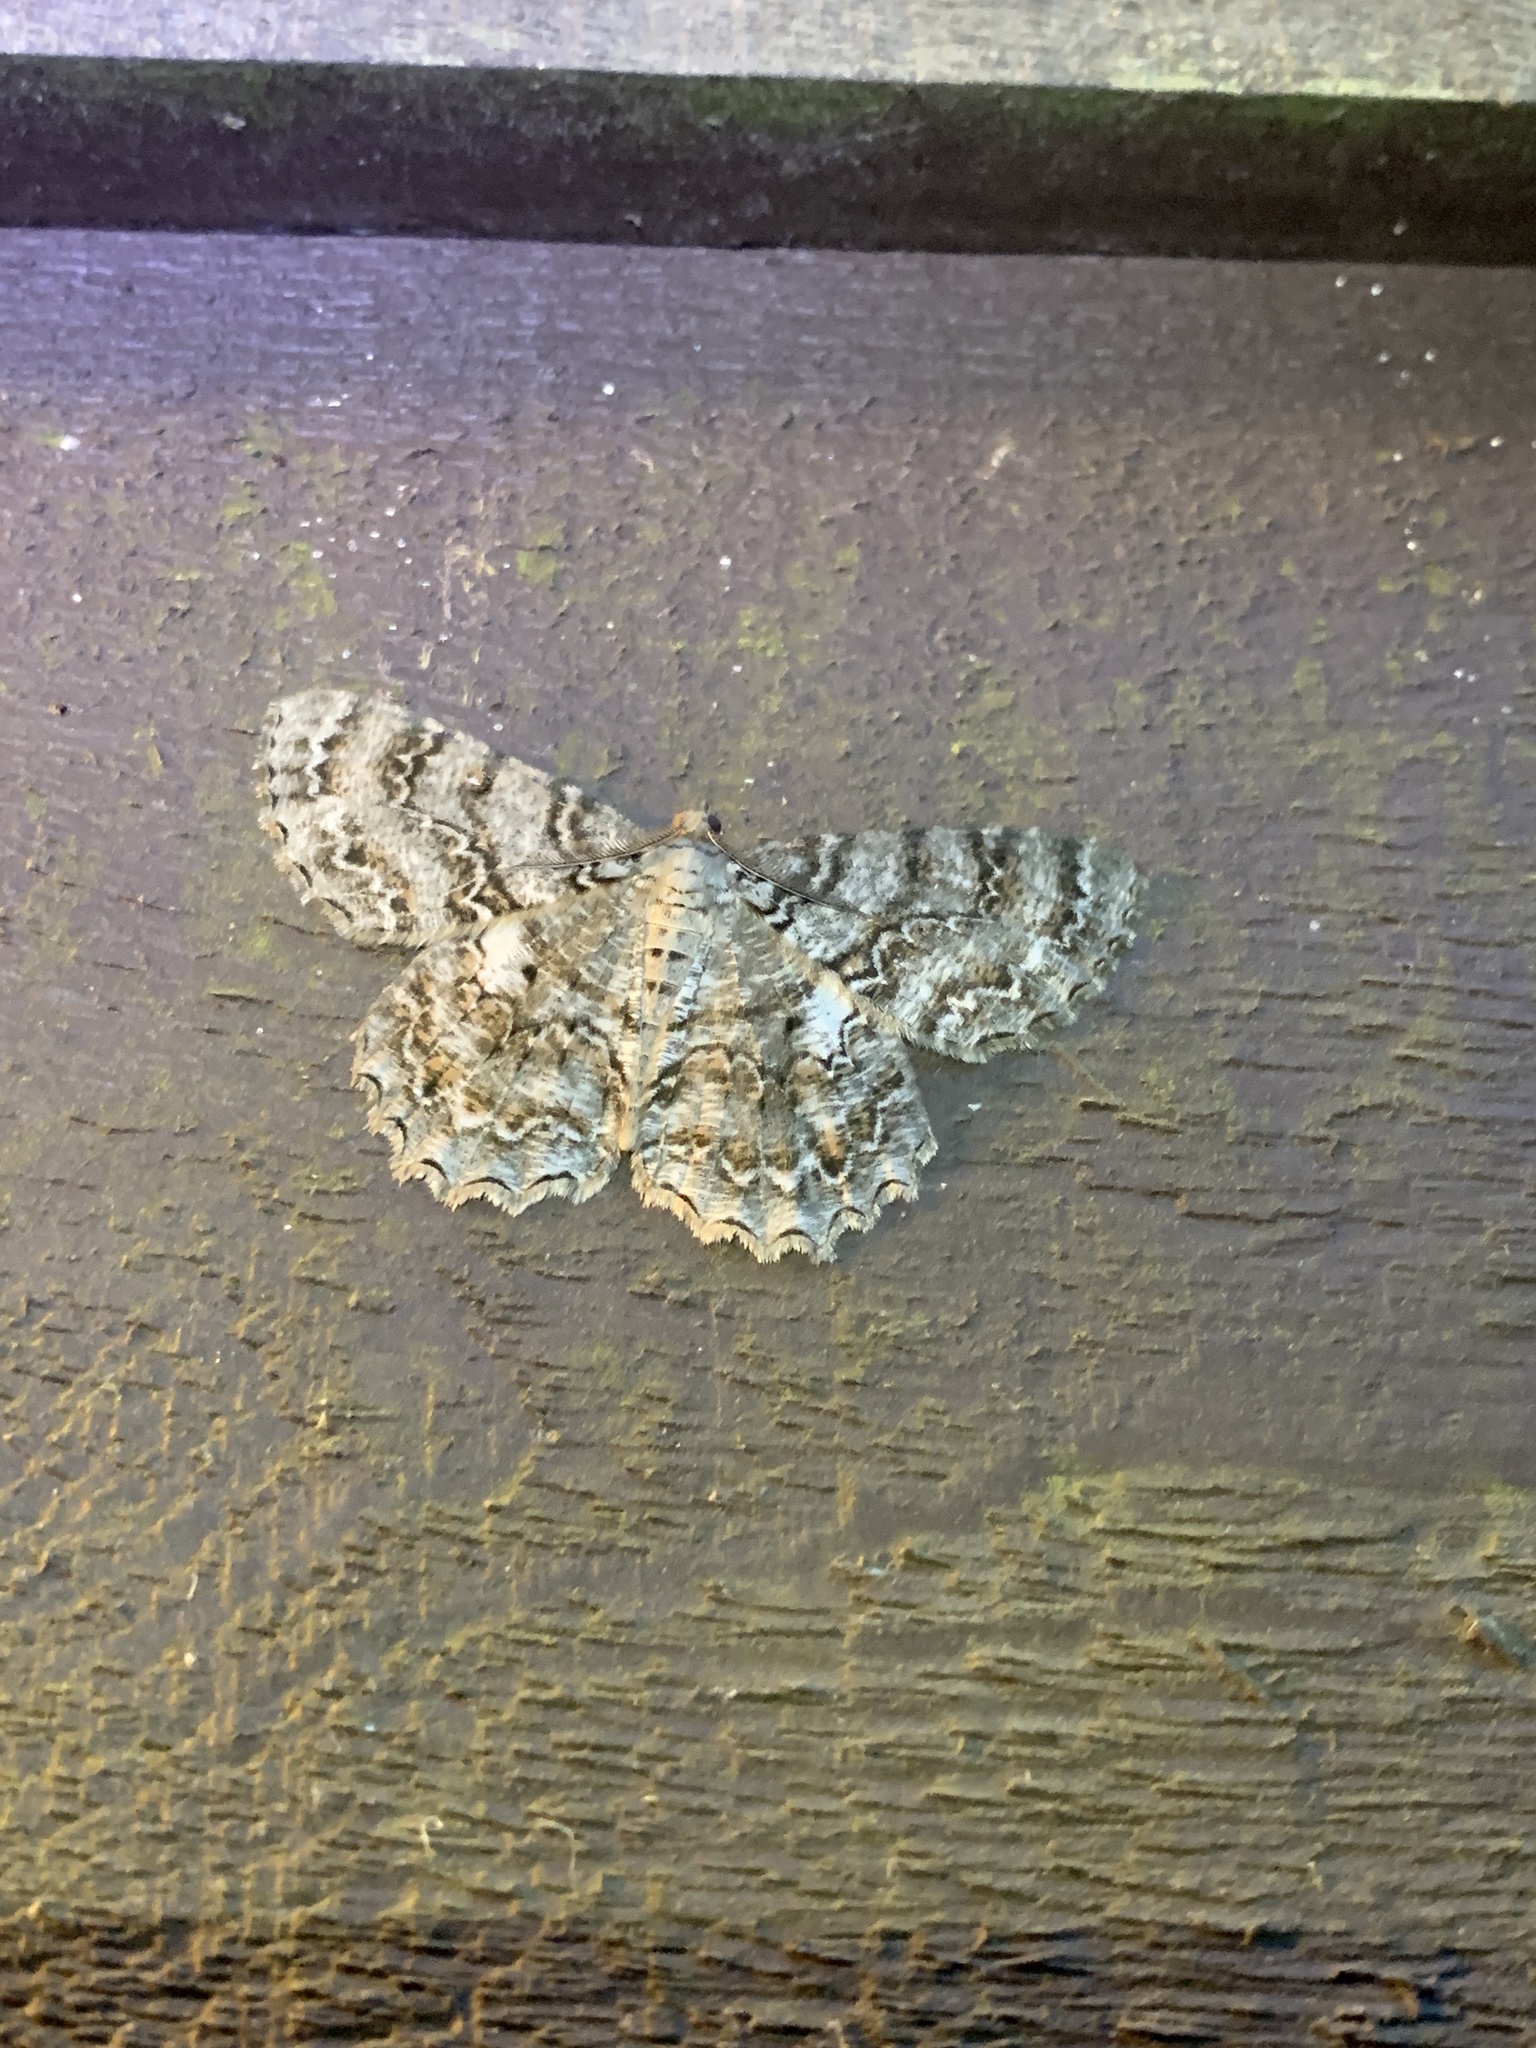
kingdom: Animalia
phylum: Arthropoda
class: Insecta
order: Lepidoptera
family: Geometridae
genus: Epimecis
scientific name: Epimecis hortaria
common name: Tulip-tree beauty
